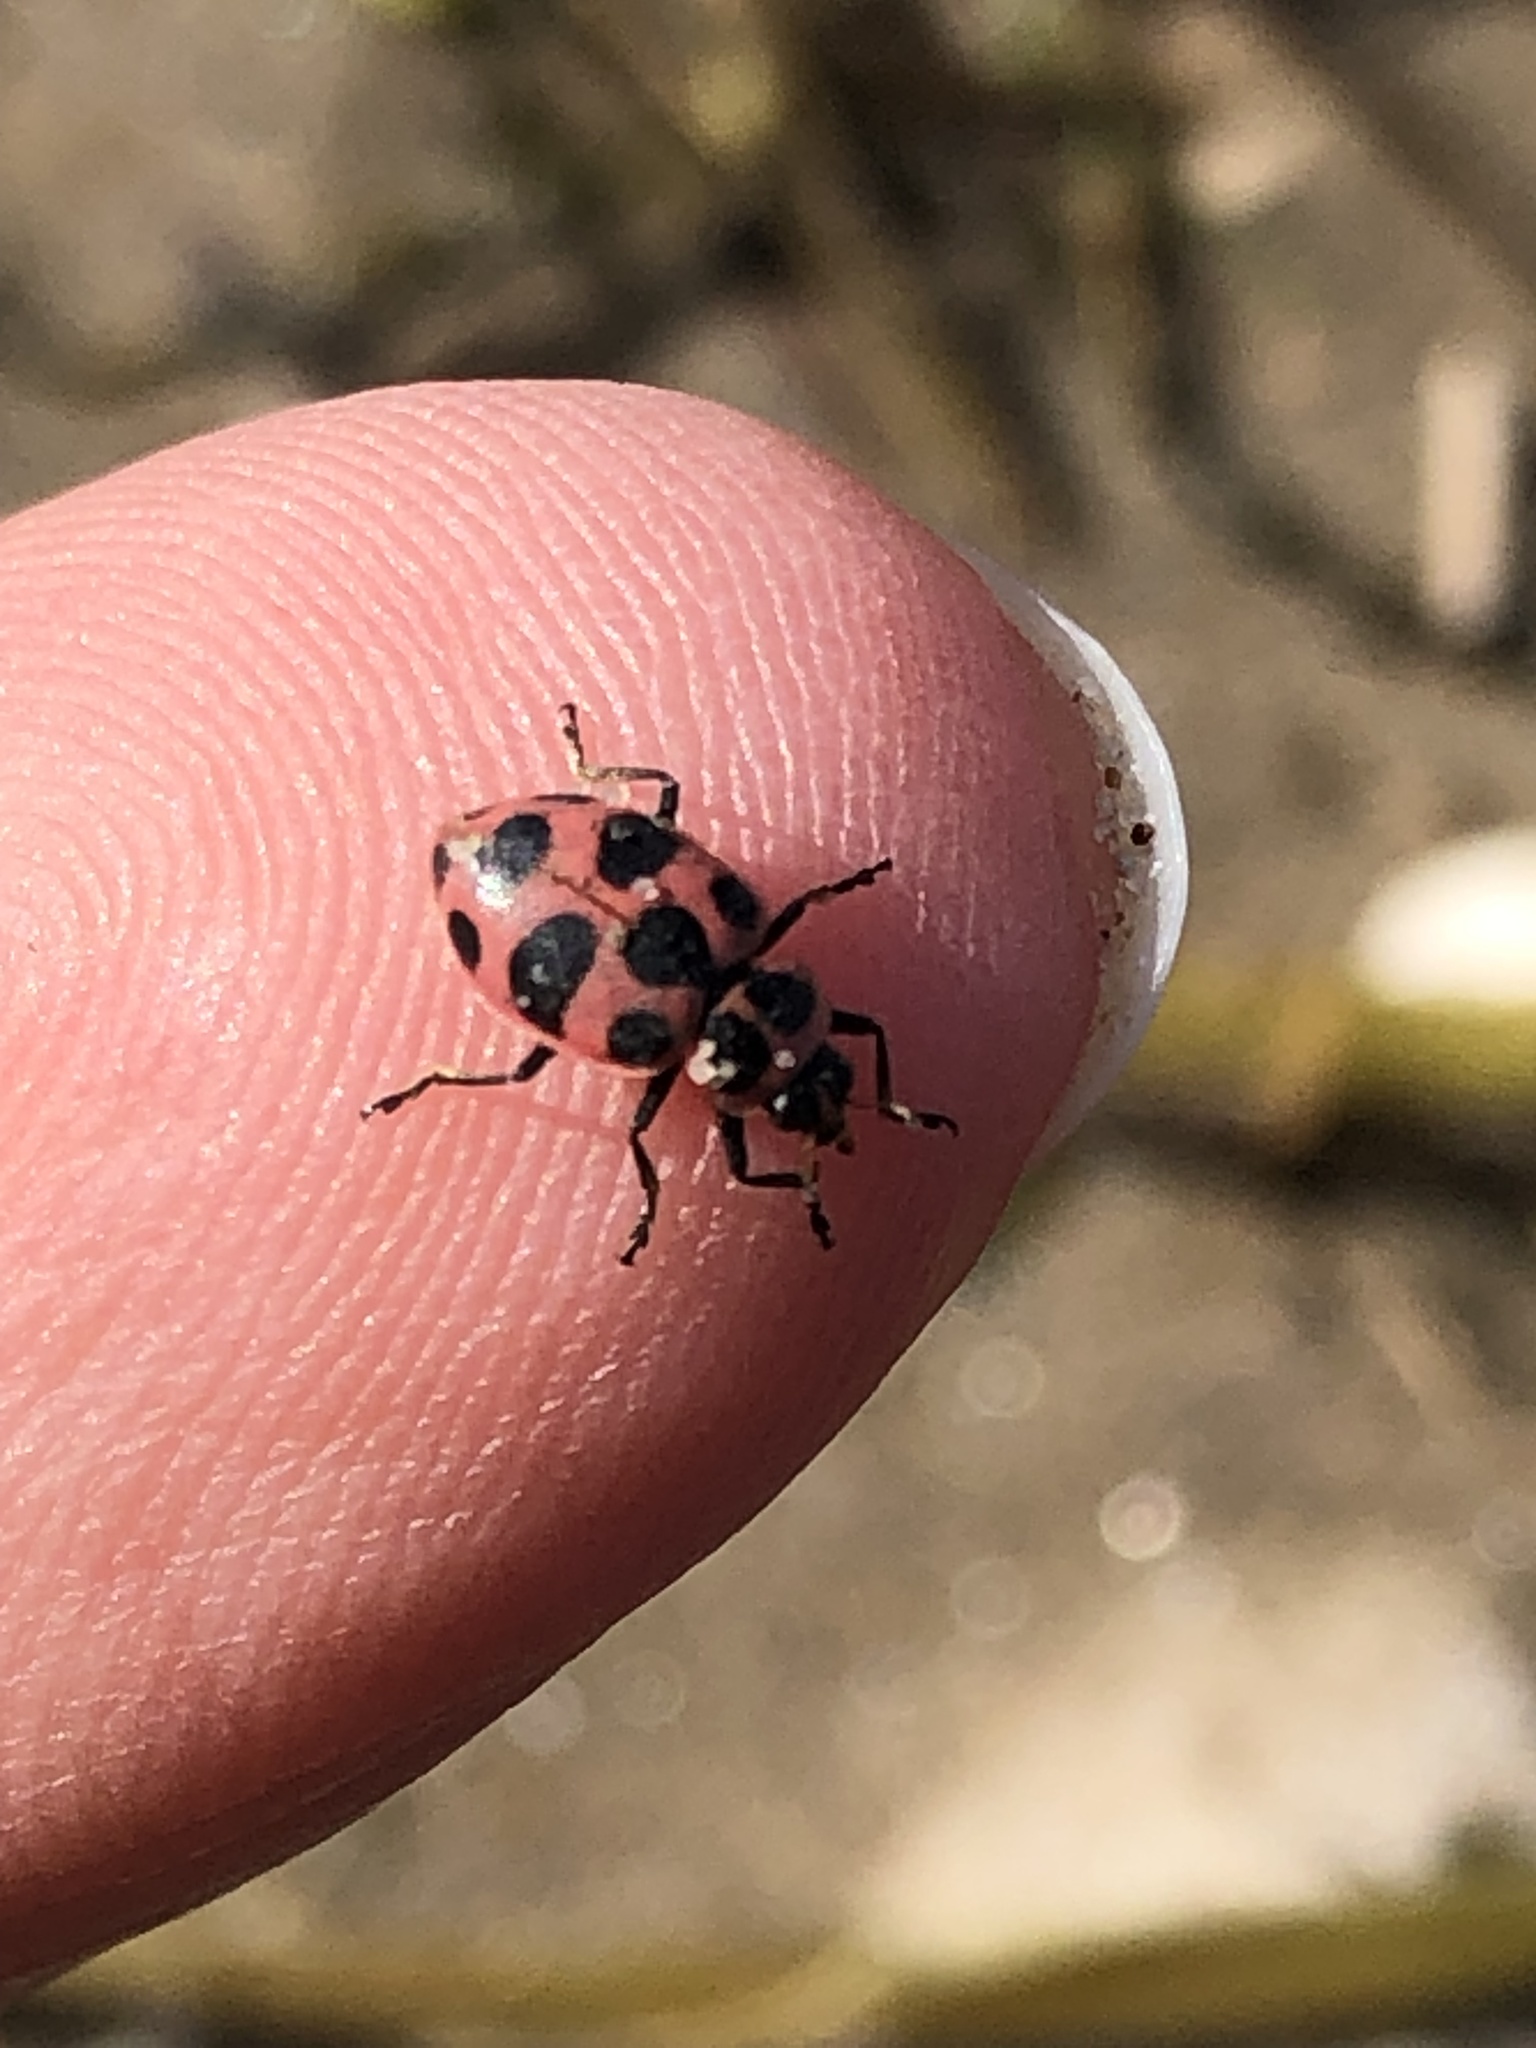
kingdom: Animalia
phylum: Arthropoda
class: Insecta
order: Coleoptera
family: Coccinellidae
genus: Coleomegilla
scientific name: Coleomegilla maculata
